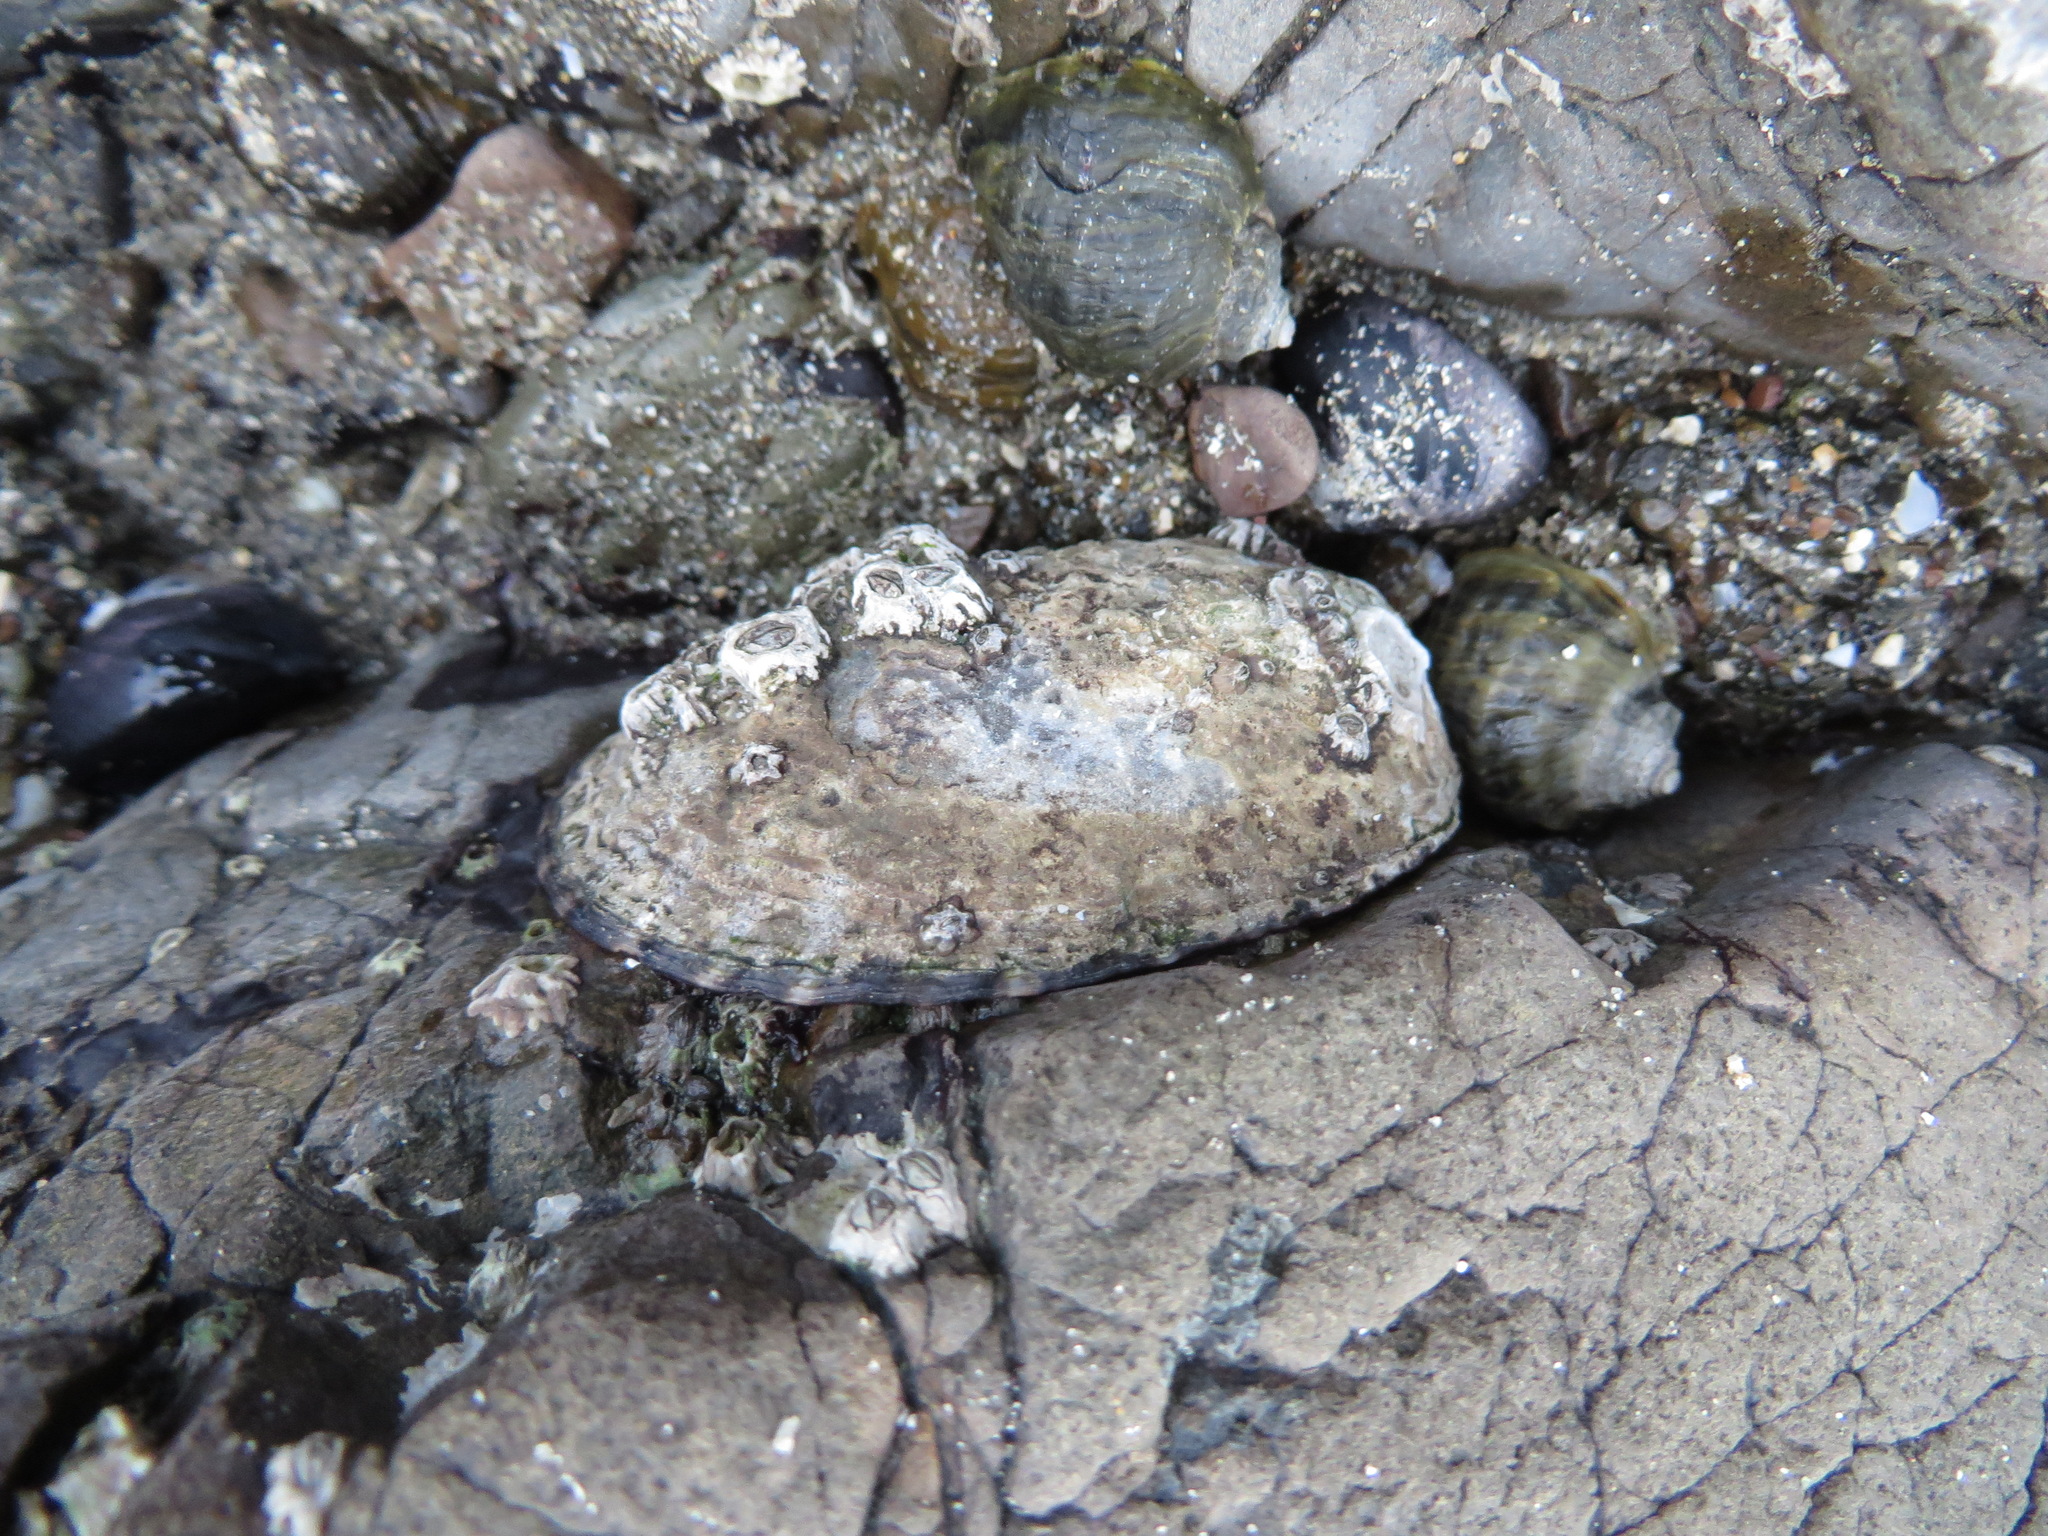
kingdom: Animalia
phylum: Mollusca
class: Gastropoda
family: Lottiidae
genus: Lottia
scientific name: Lottia gigantea
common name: Owl limpet
